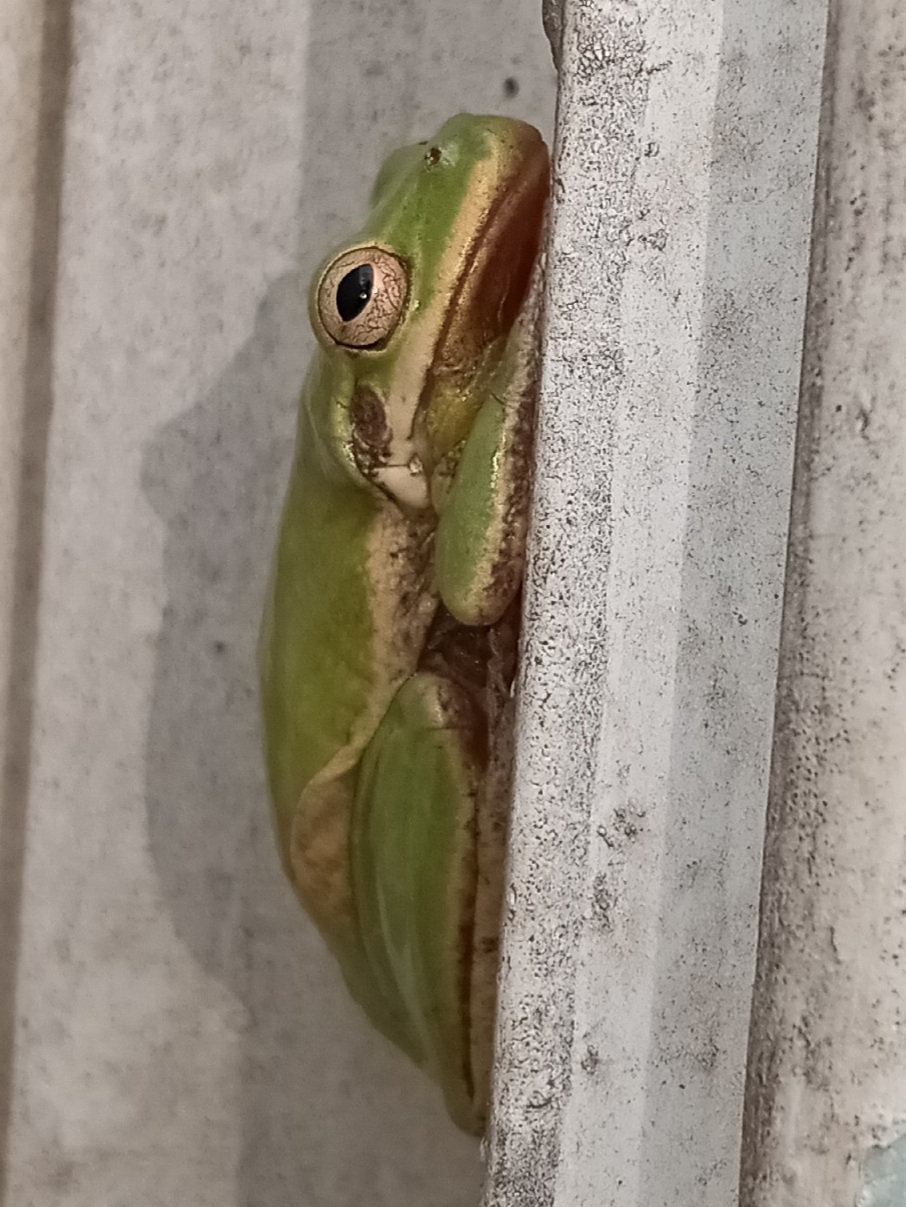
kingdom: Animalia
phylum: Chordata
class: Amphibia
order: Anura
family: Hylidae
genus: Dryophytes
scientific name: Dryophytes squirellus
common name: Squirrel treefrog
